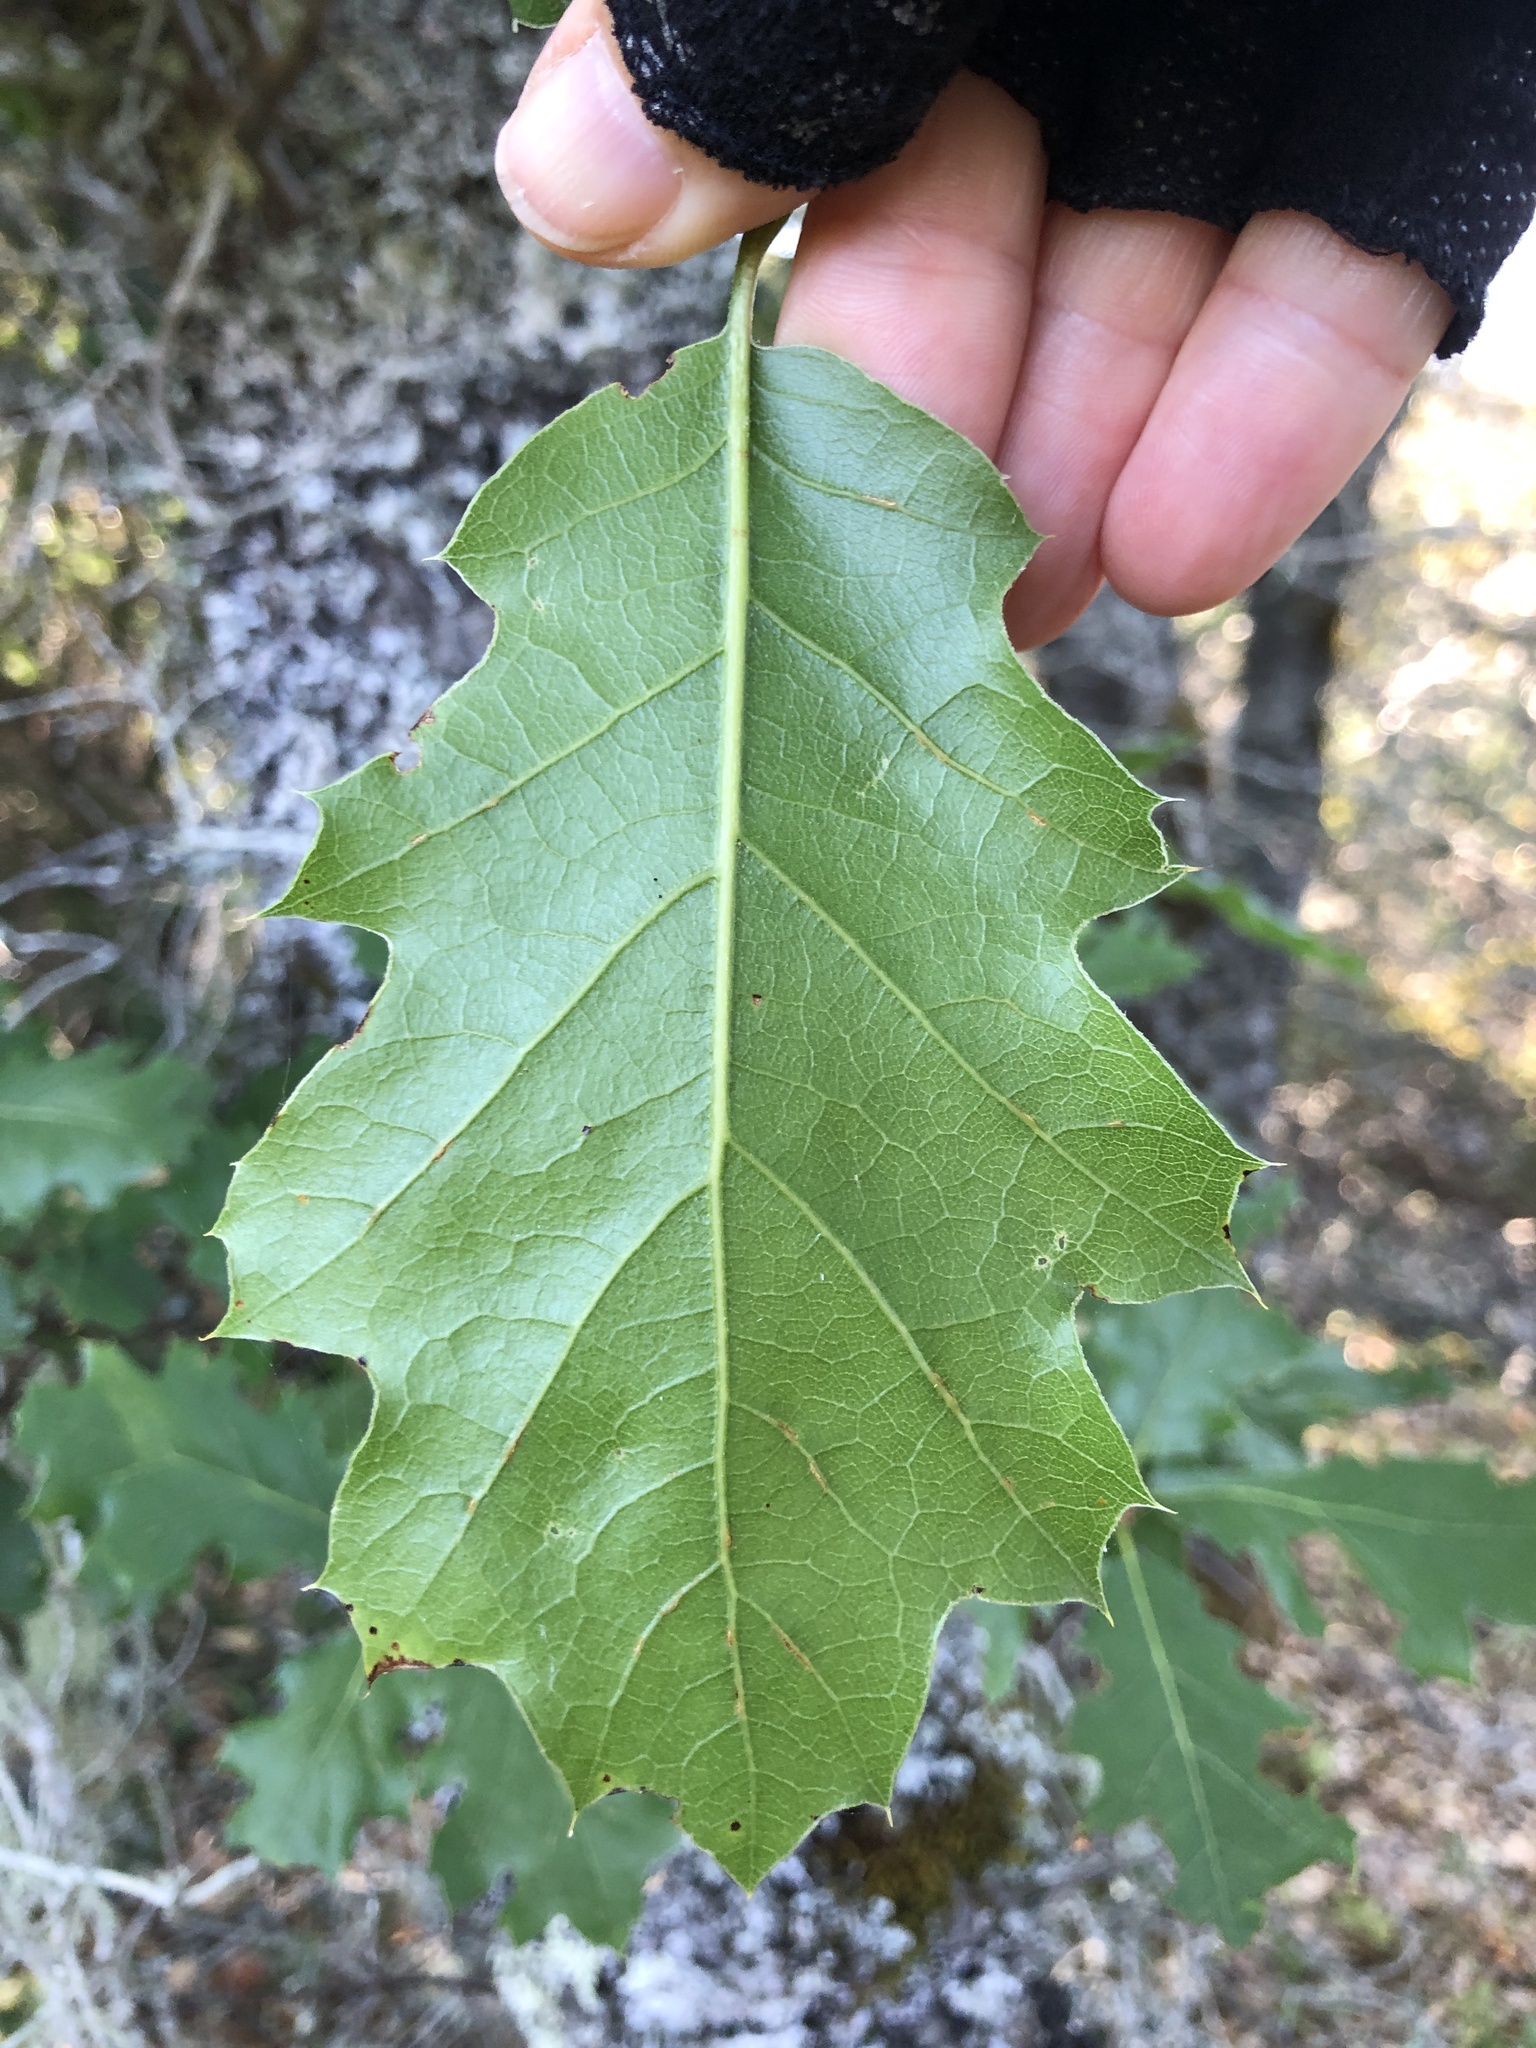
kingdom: Plantae
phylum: Tracheophyta
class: Magnoliopsida
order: Fagales
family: Fagaceae
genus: Quercus
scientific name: Quercus morehus
